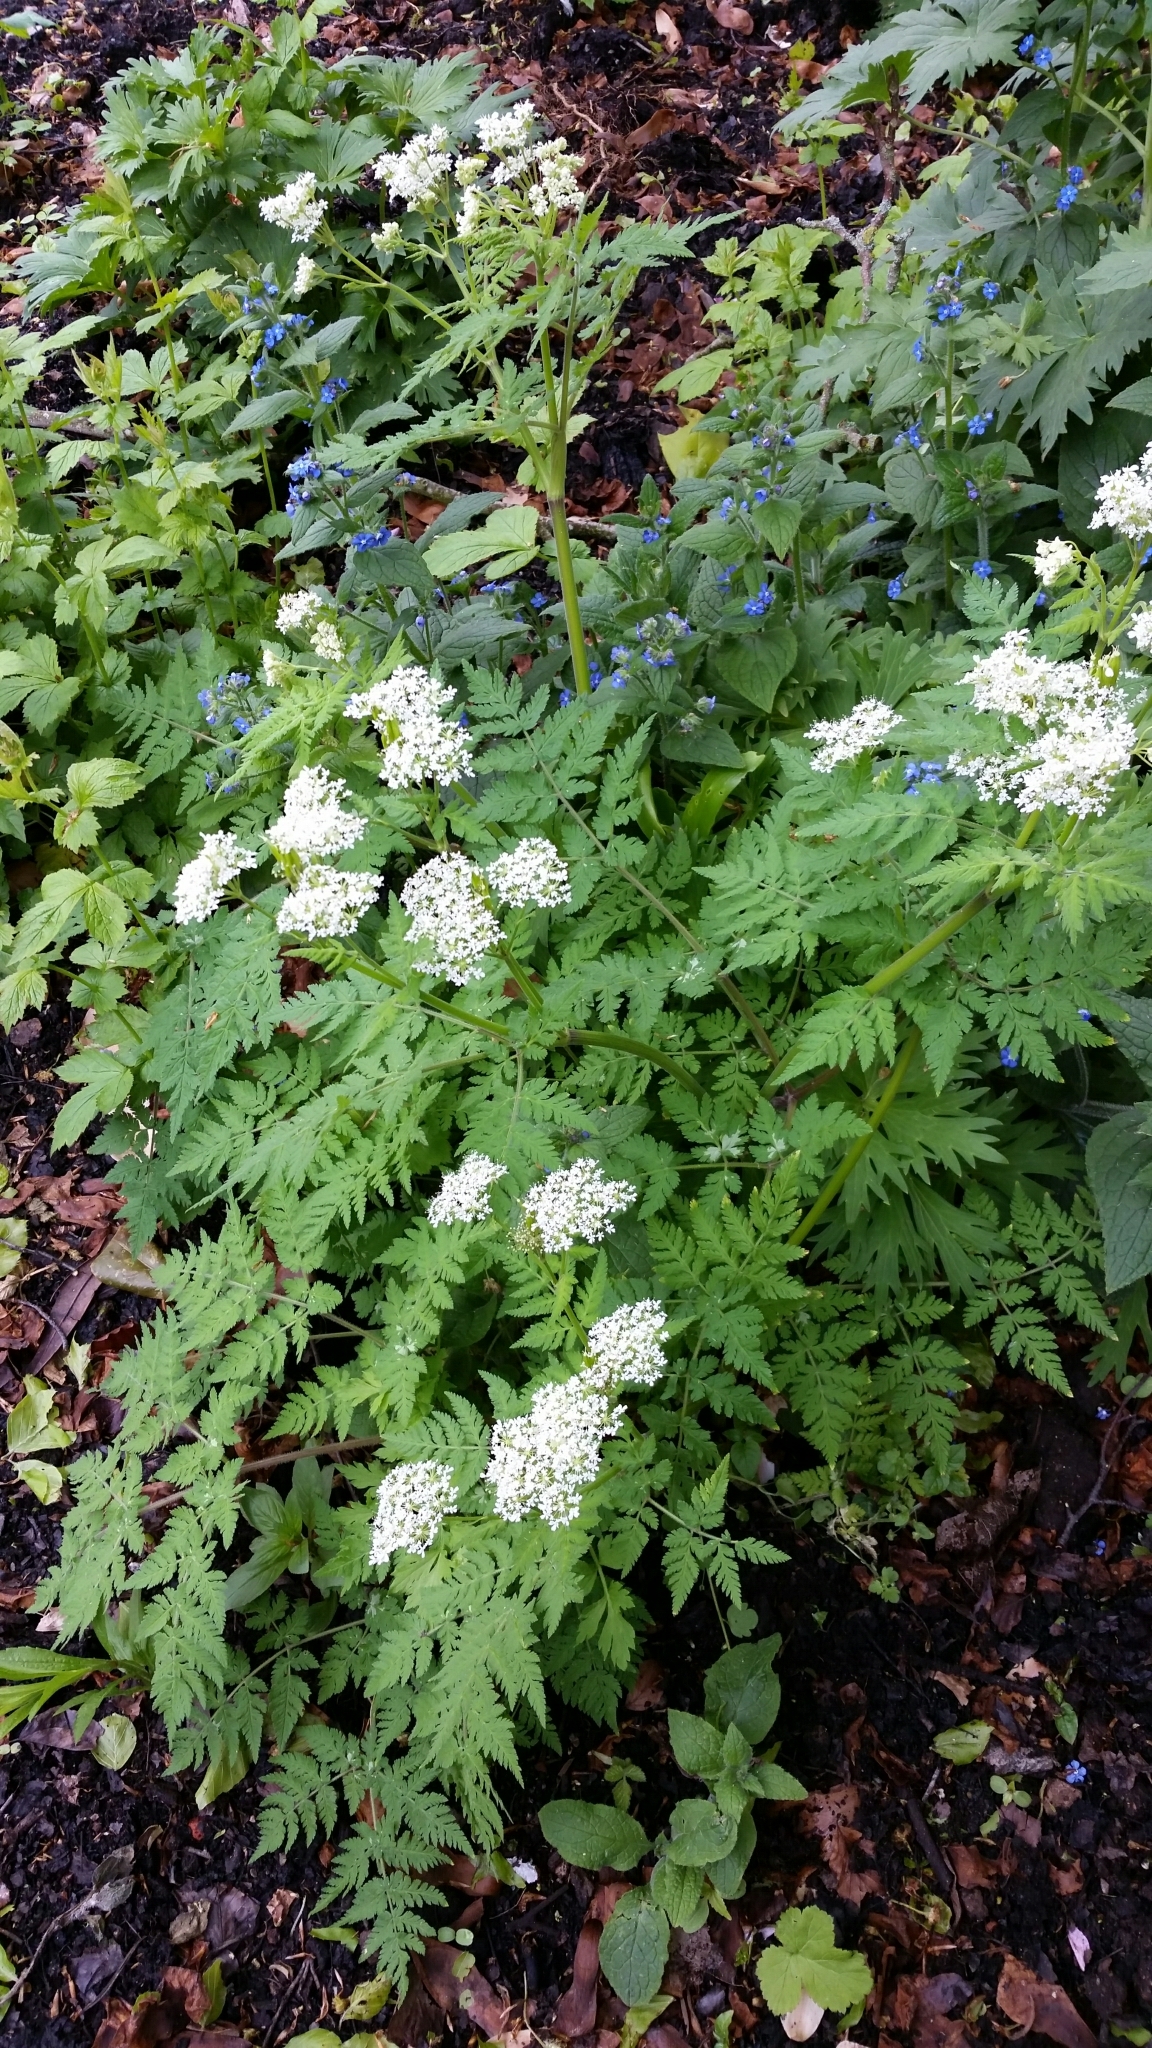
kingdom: Plantae
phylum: Tracheophyta
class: Magnoliopsida
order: Apiales
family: Apiaceae
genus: Myrrhis
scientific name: Myrrhis odorata
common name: Sweet cicely
